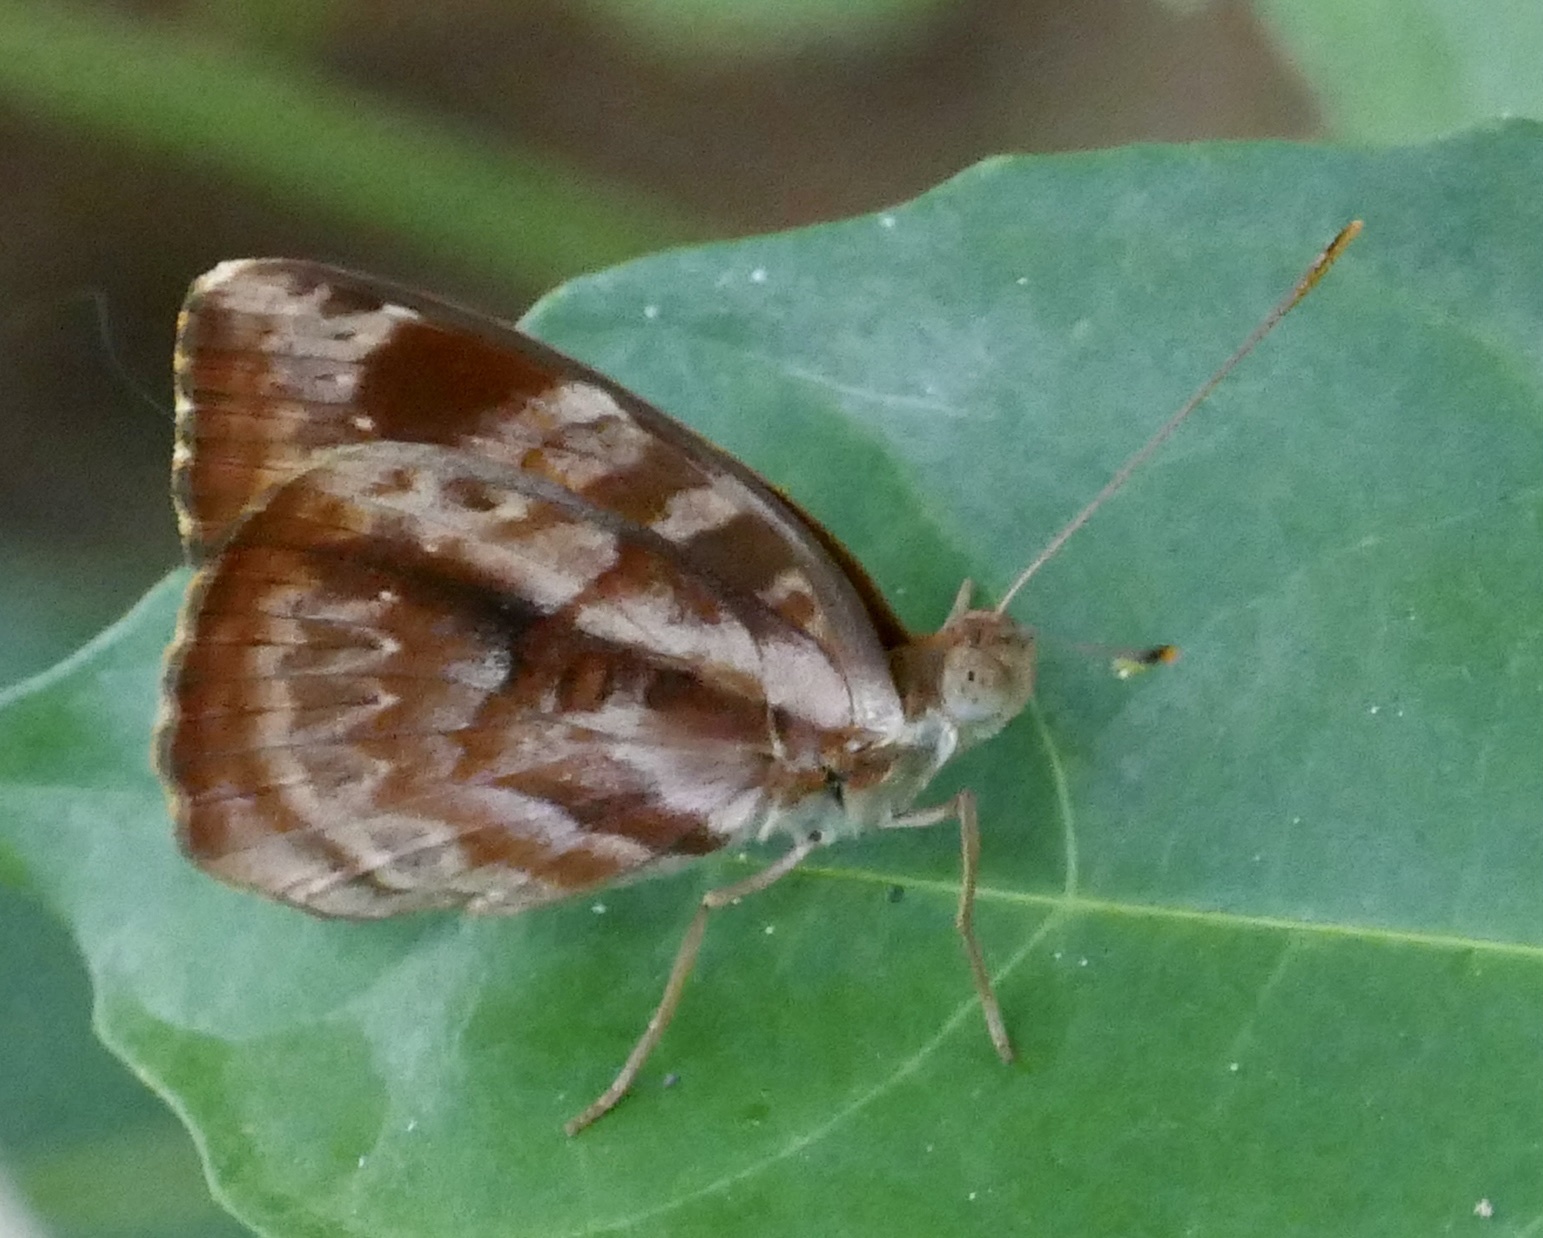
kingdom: Animalia
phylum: Arthropoda
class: Insecta
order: Lepidoptera
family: Nymphalidae
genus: Cynandra
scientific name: Cynandra opis
